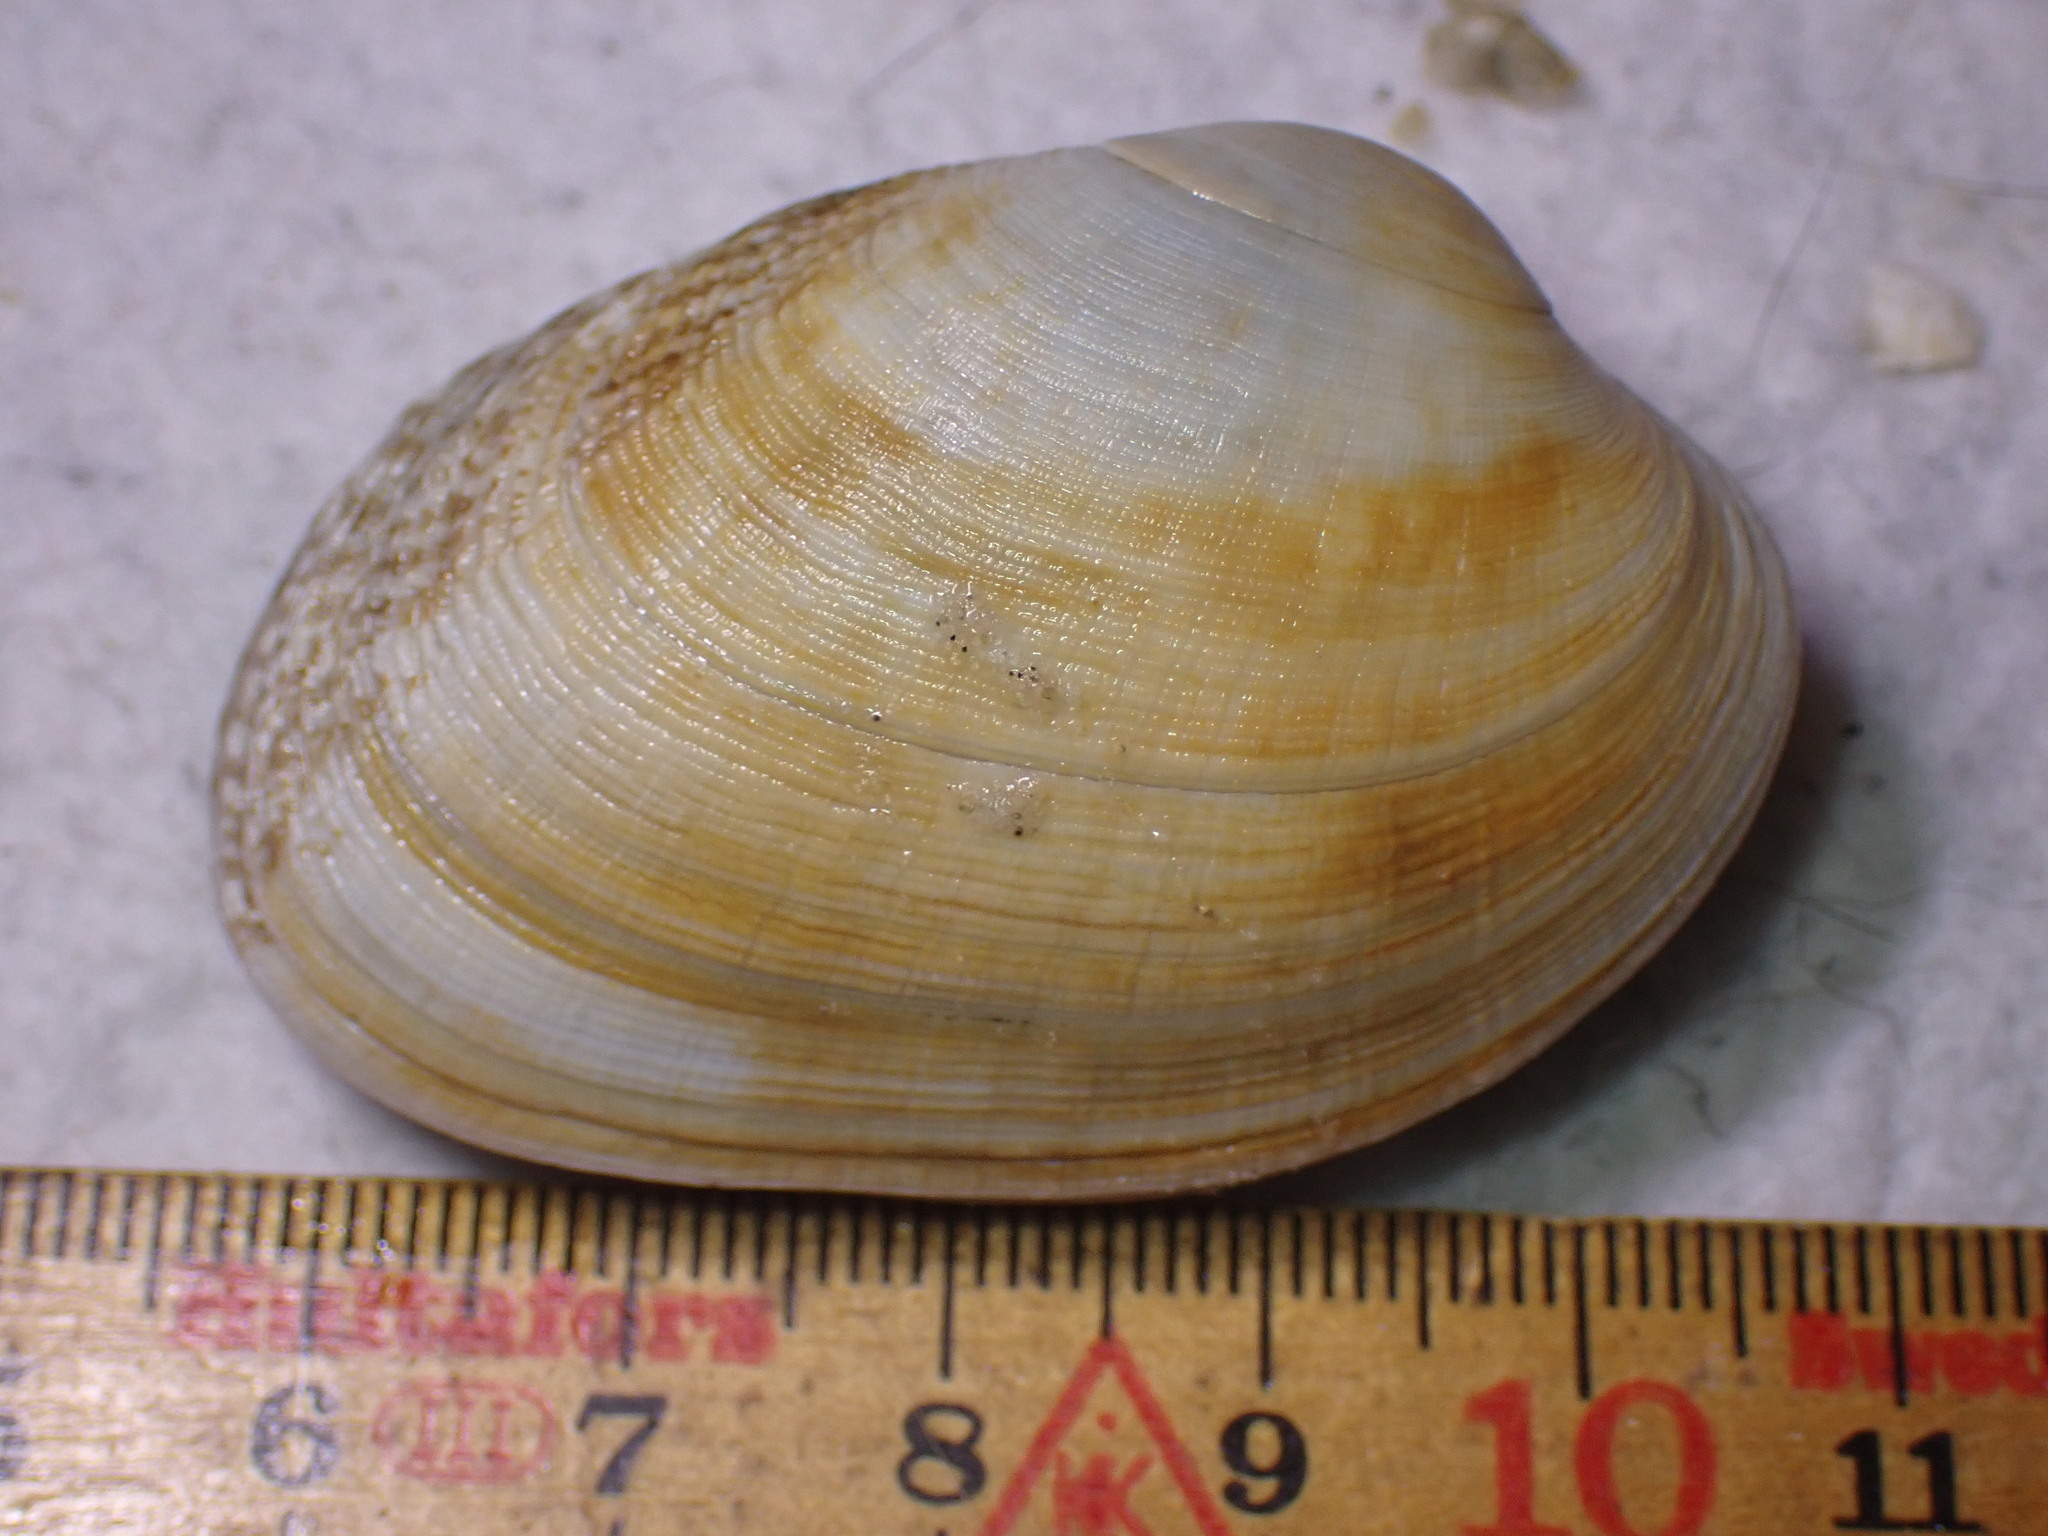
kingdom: Animalia
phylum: Mollusca
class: Bivalvia
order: Venerida
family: Veneridae
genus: Venerupis
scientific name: Venerupis corrugata
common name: Pullet carpet shell
